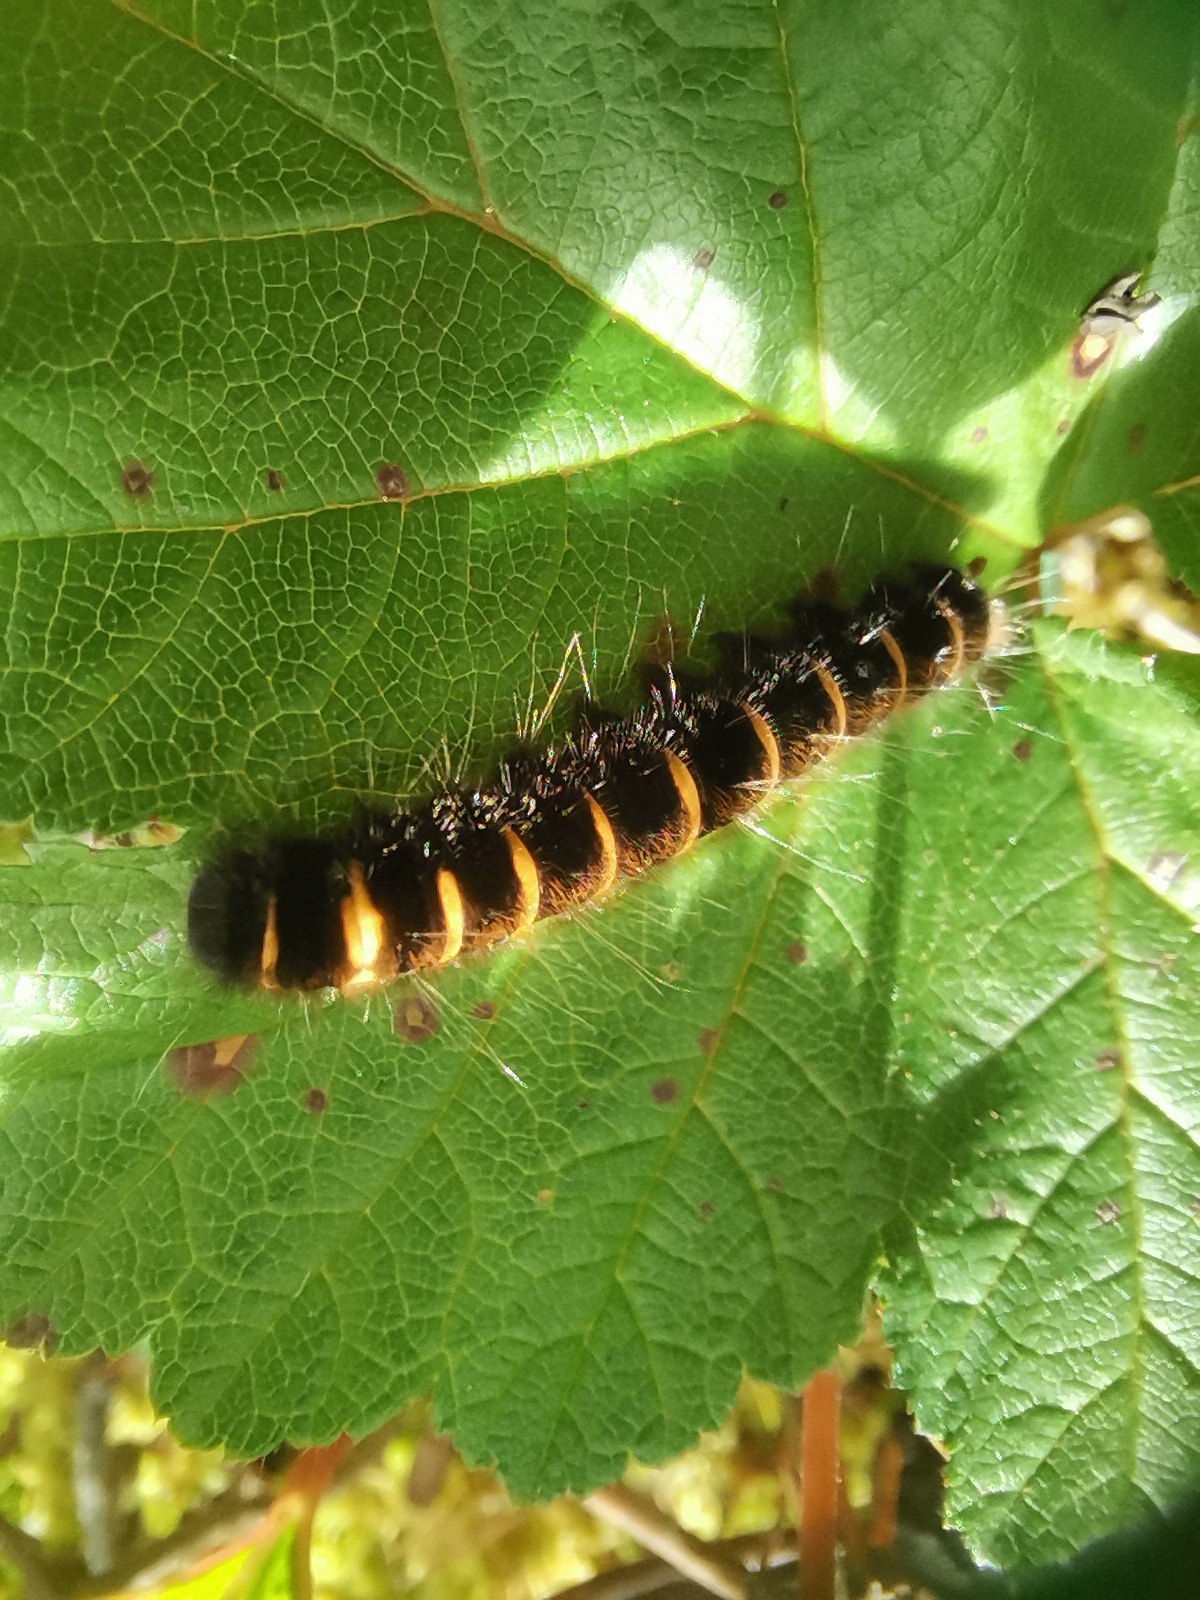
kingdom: Animalia
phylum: Arthropoda
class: Insecta
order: Lepidoptera
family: Lasiocampidae
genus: Macrothylacia
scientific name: Macrothylacia rubi
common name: Fox moth
